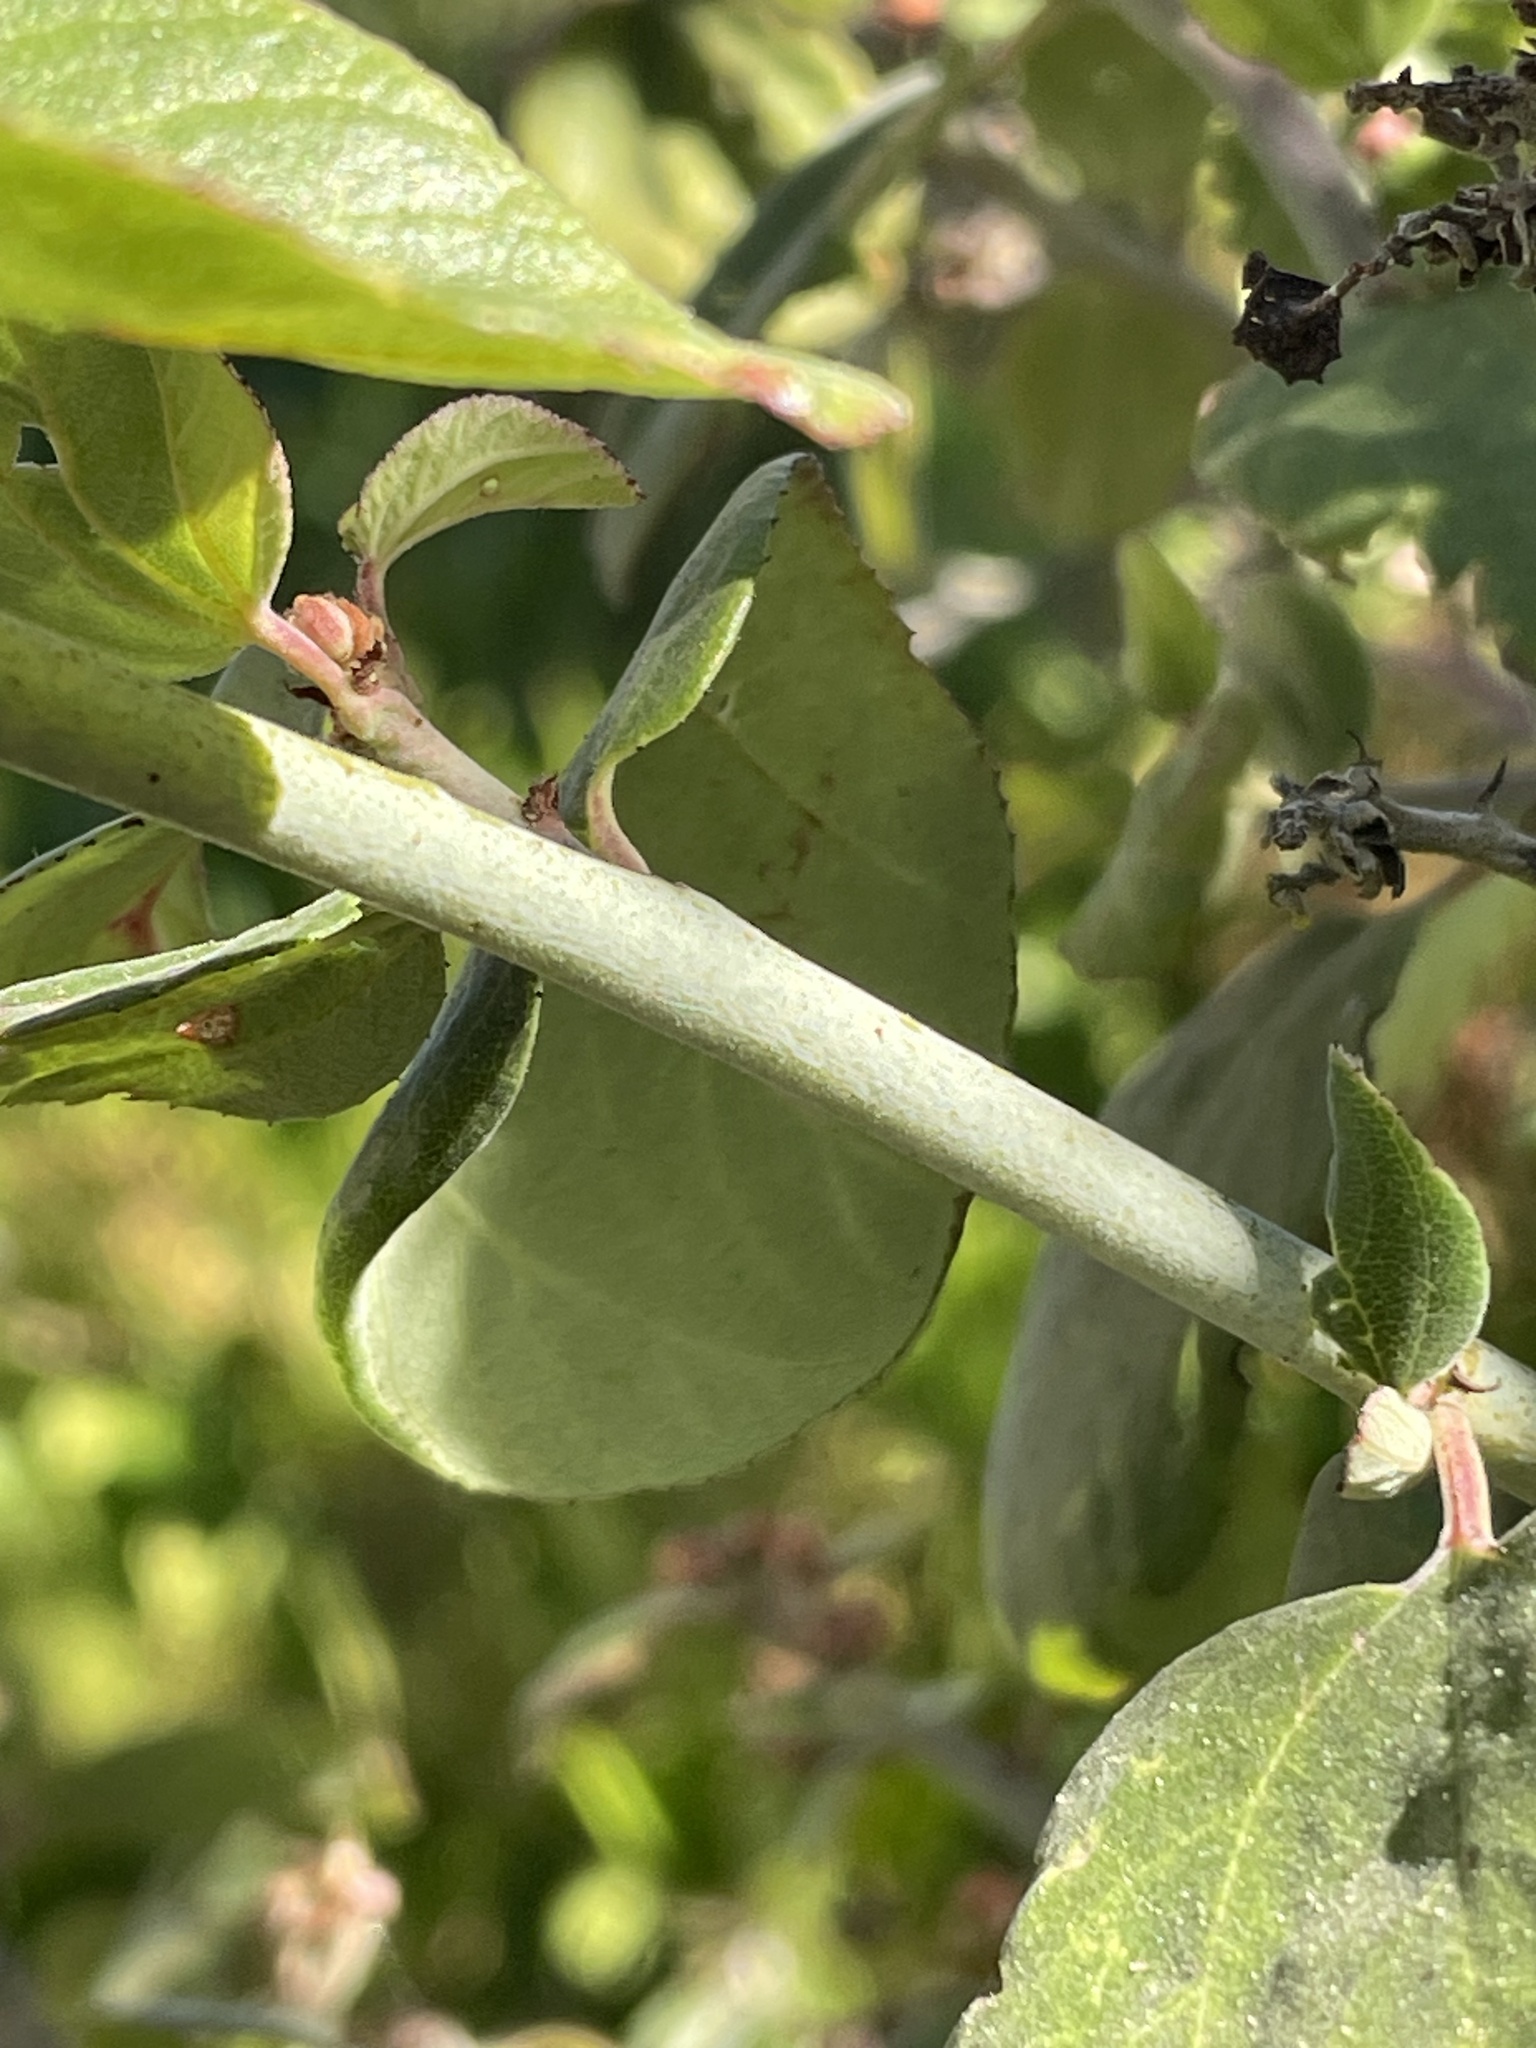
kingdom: Plantae
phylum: Tracheophyta
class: Magnoliopsida
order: Rosales
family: Rhamnaceae
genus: Ceanothus
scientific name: Ceanothus incanus
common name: Coast whitethorn
